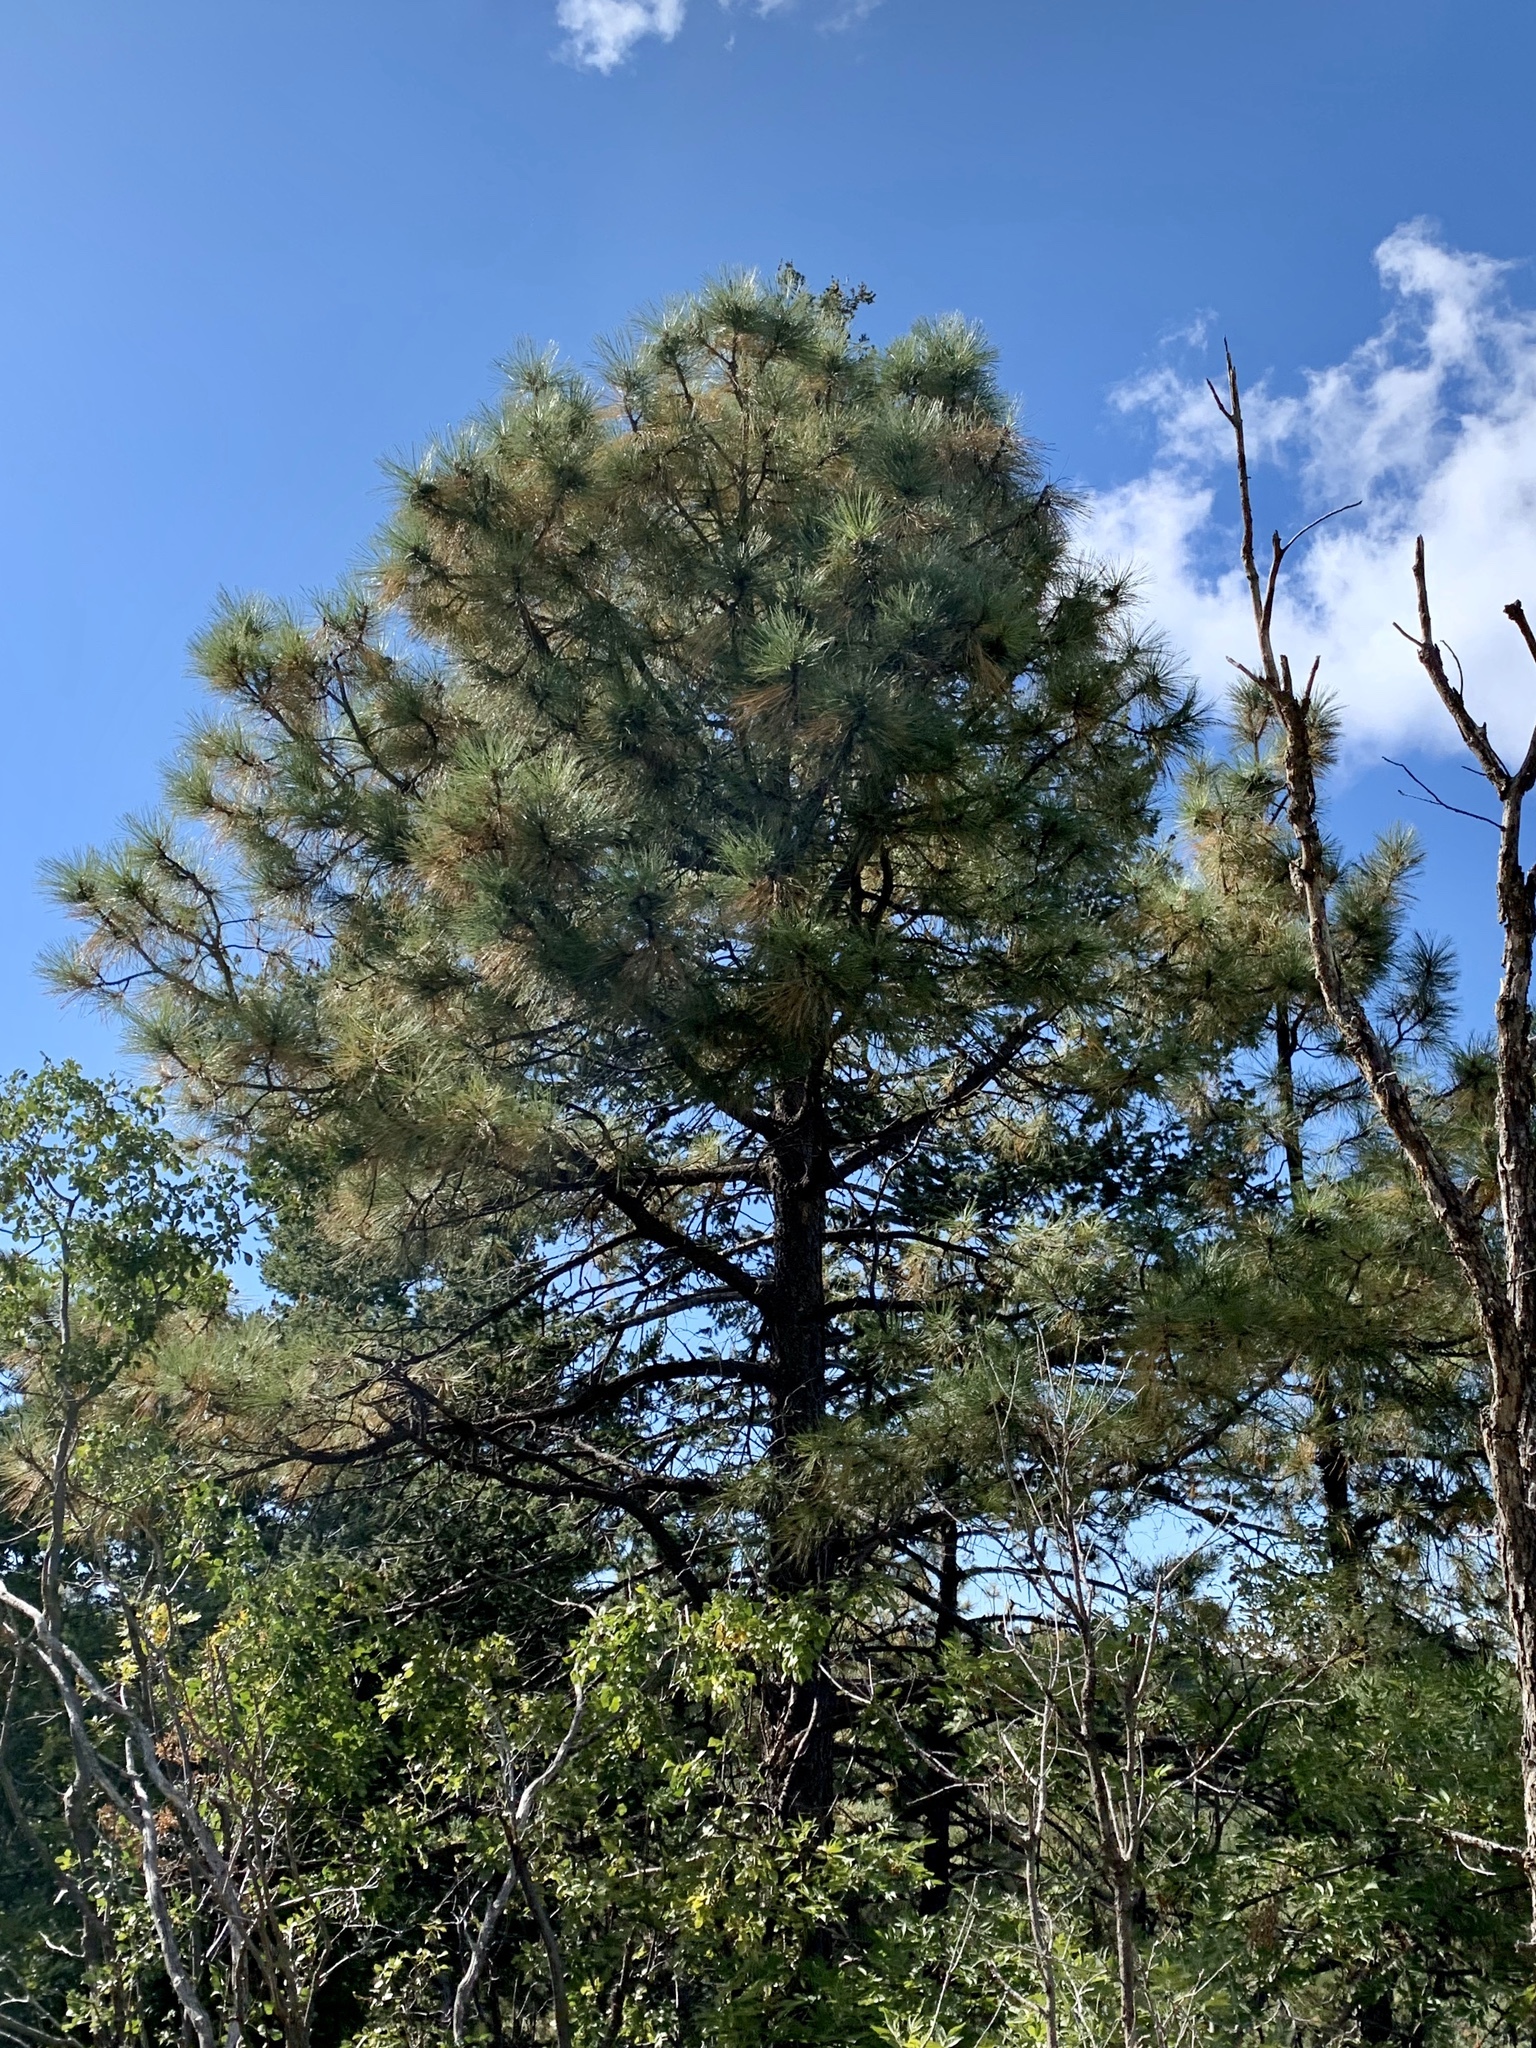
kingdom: Plantae
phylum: Tracheophyta
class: Pinopsida
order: Pinales
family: Pinaceae
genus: Pinus
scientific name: Pinus ponderosa
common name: Western yellow-pine
